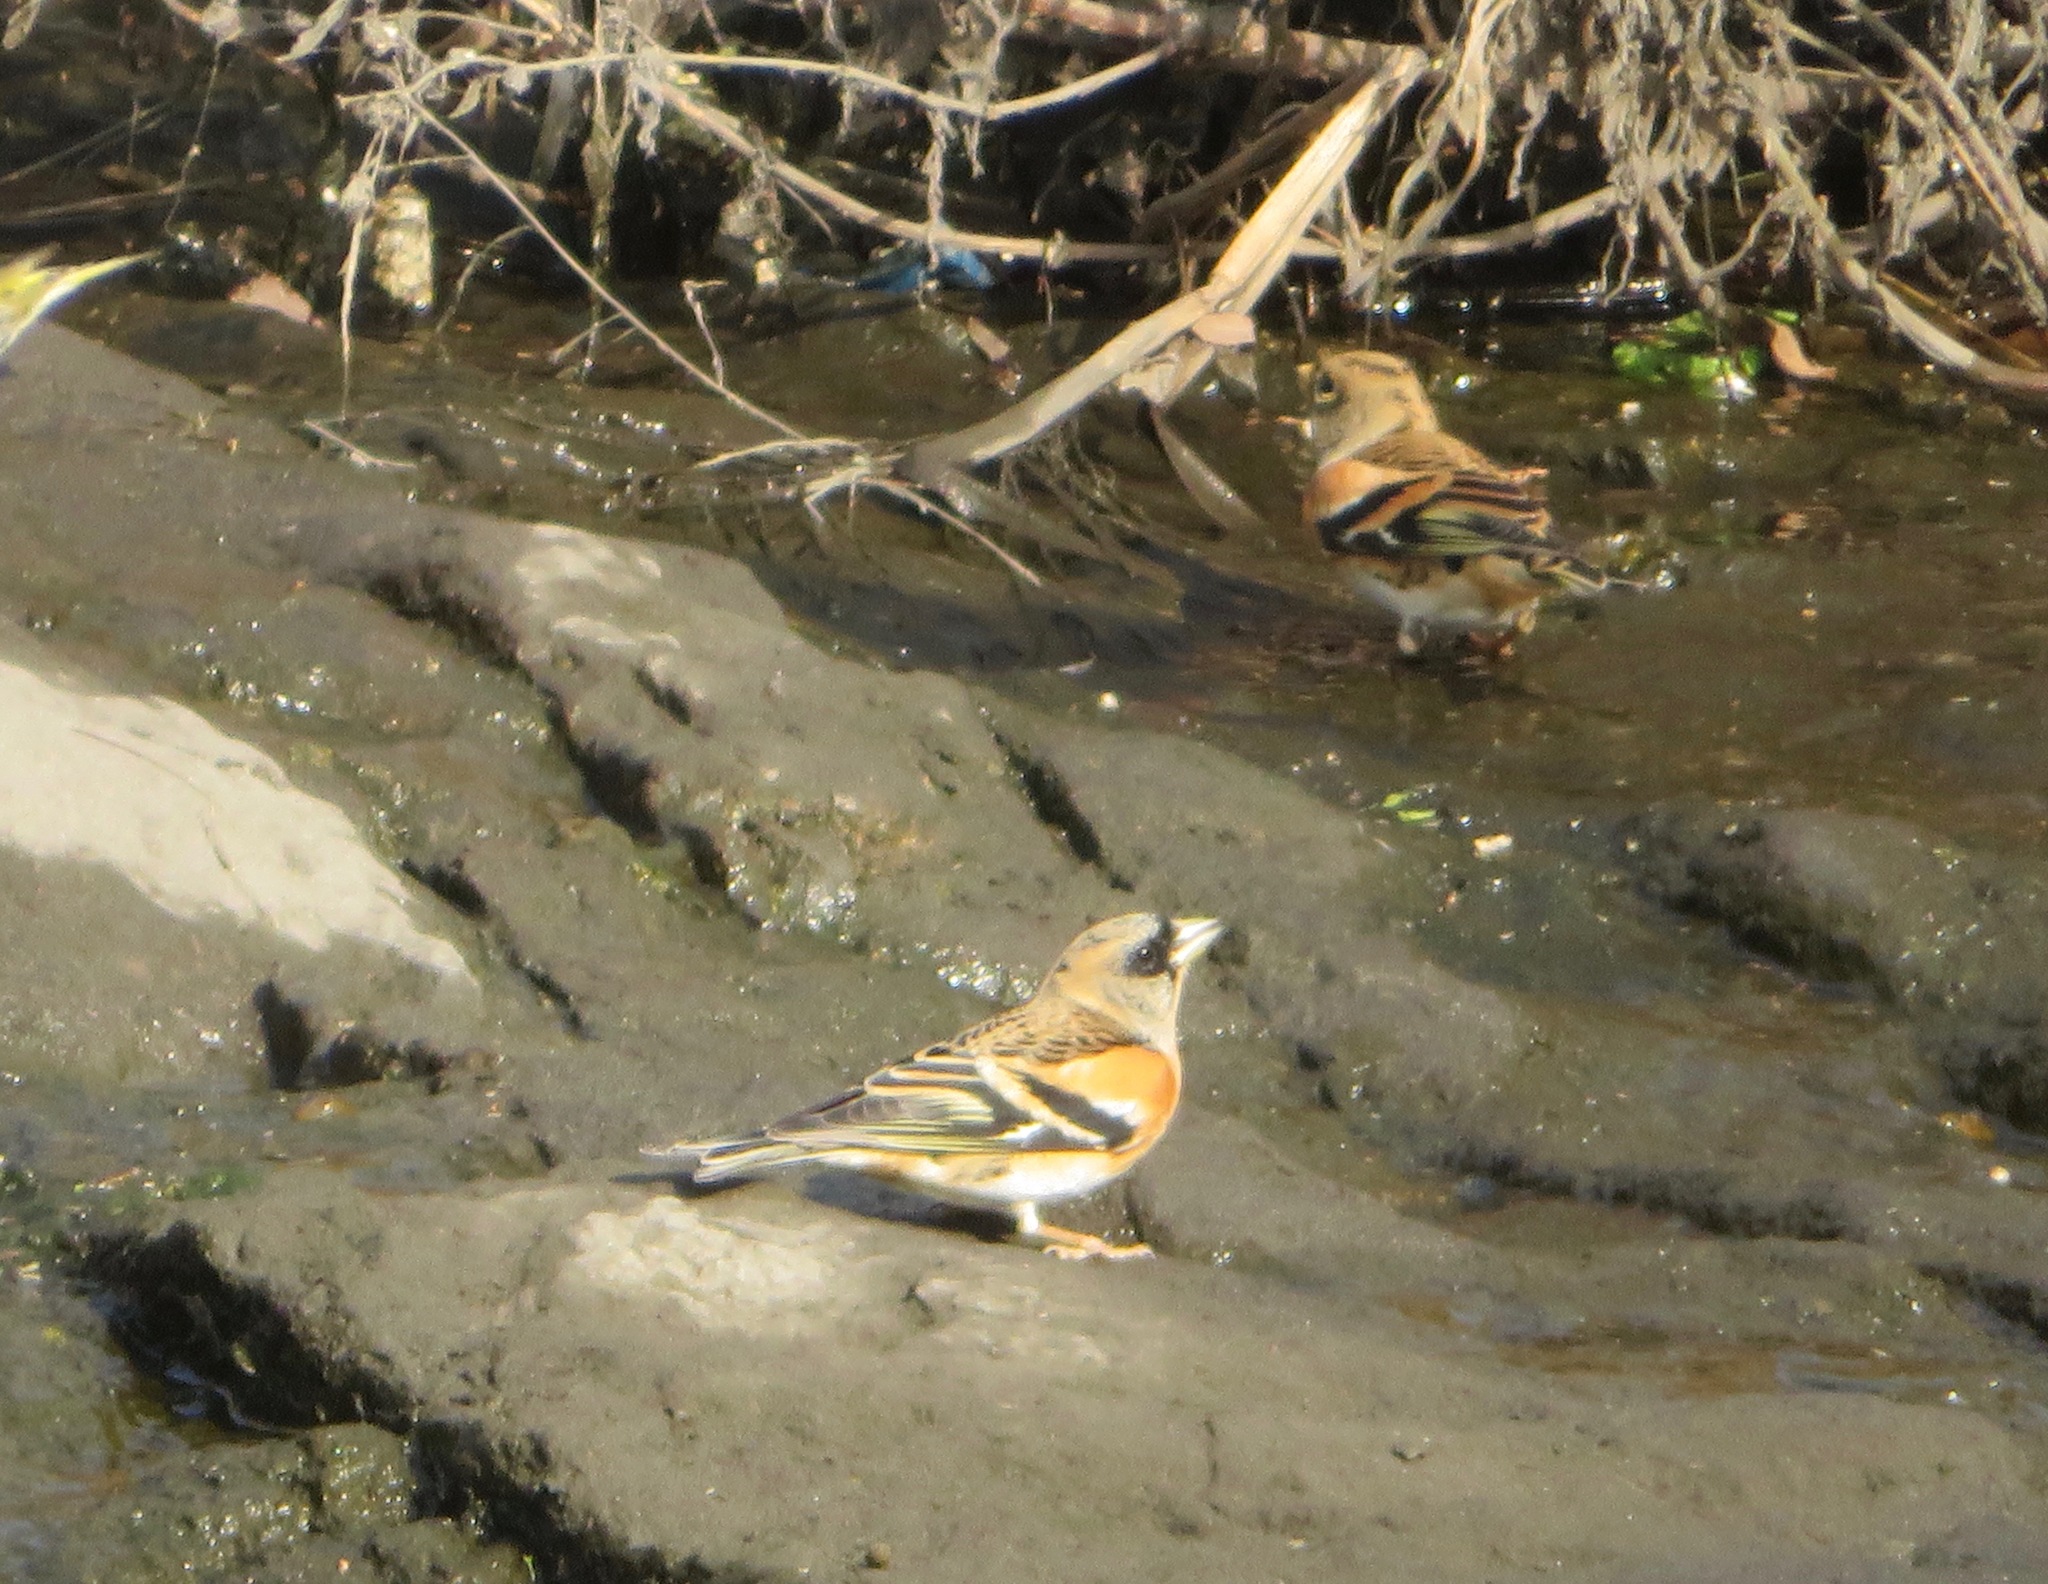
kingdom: Animalia
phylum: Chordata
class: Aves
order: Passeriformes
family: Fringillidae
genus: Fringilla
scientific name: Fringilla montifringilla
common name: Brambling
